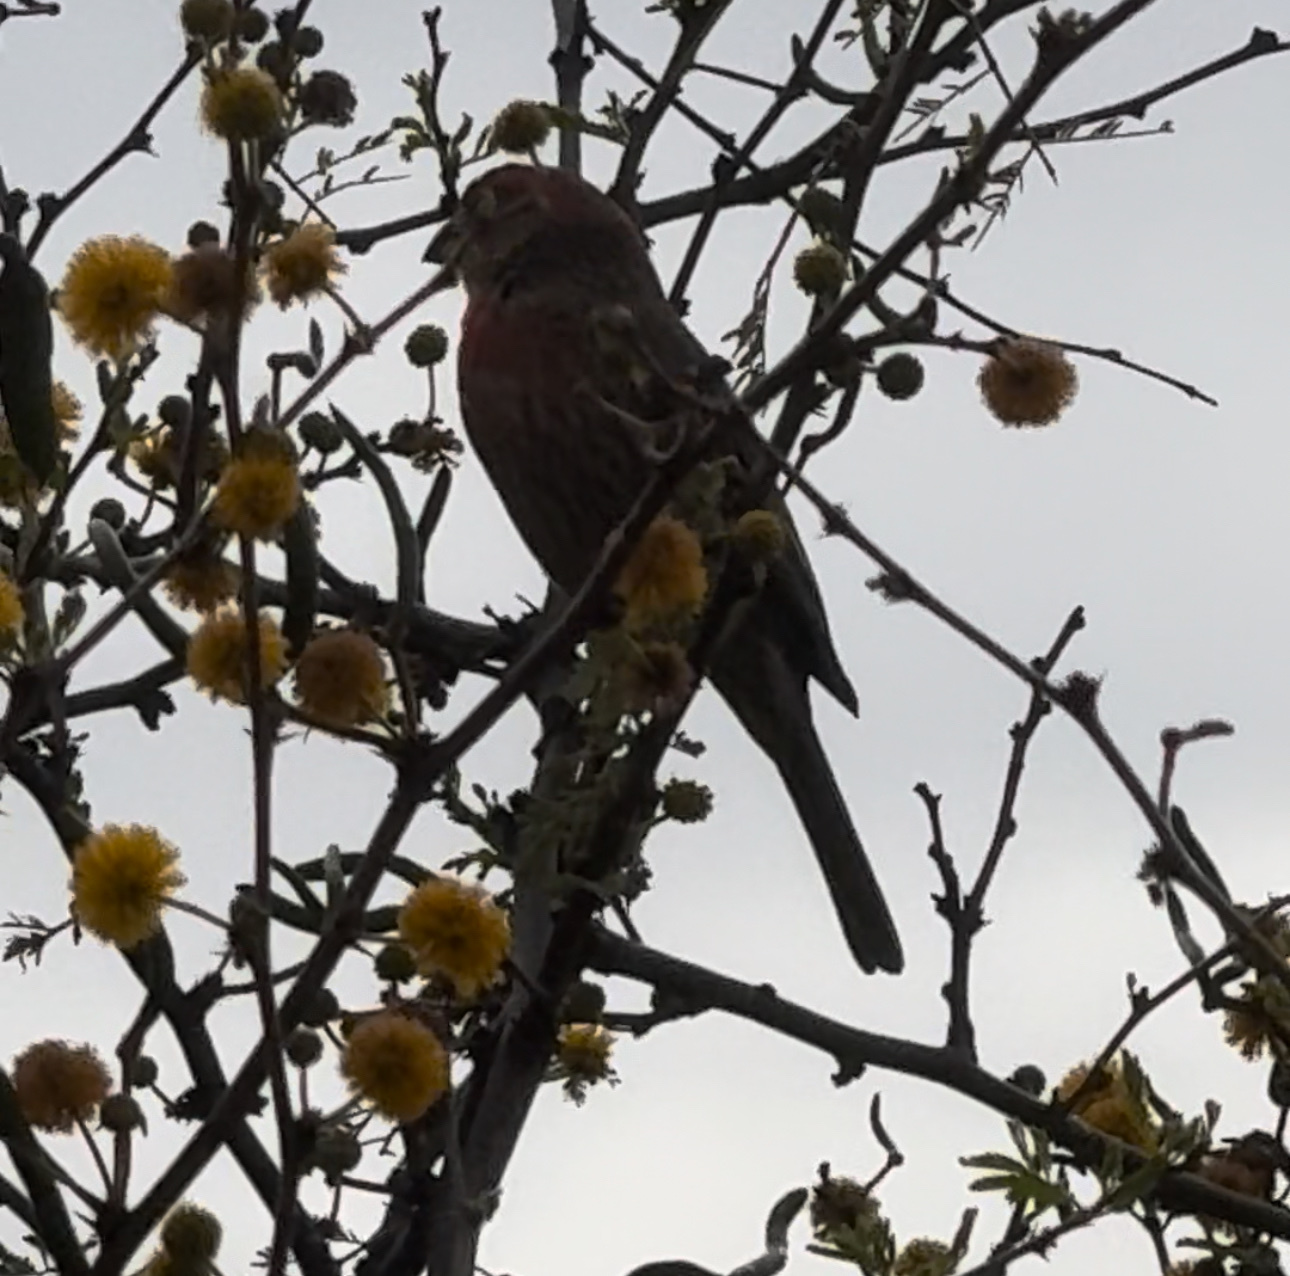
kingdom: Animalia
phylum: Chordata
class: Aves
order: Passeriformes
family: Fringillidae
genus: Haemorhous
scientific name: Haemorhous mexicanus
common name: House finch
